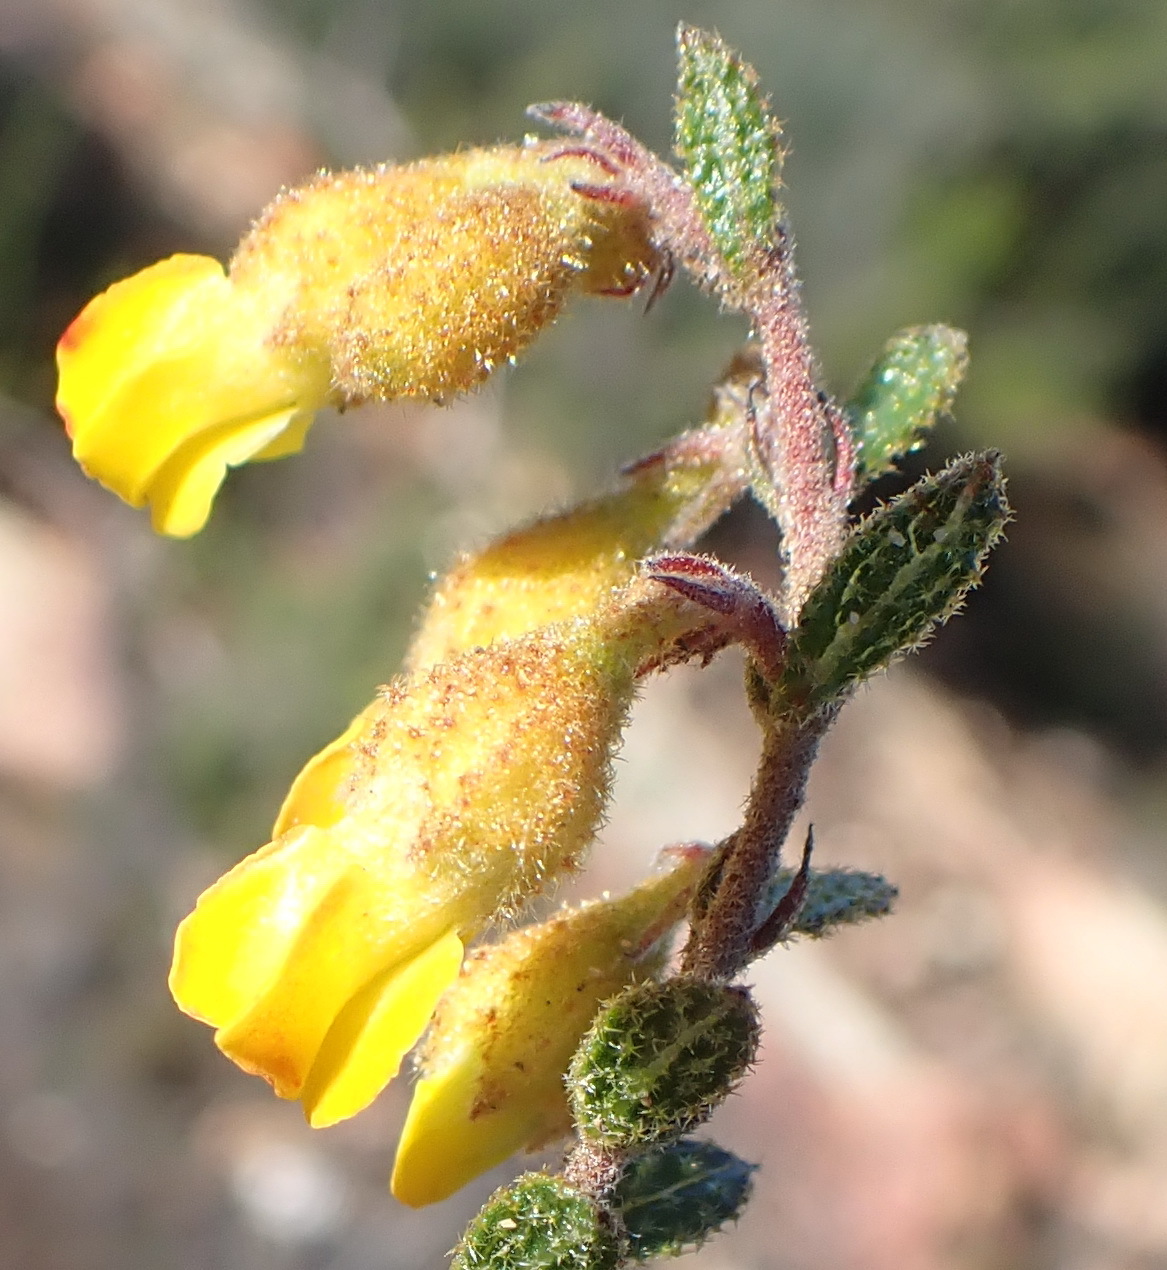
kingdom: Plantae
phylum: Tracheophyta
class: Magnoliopsida
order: Malvales
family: Malvaceae
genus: Hermannia
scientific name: Hermannia decipiens
